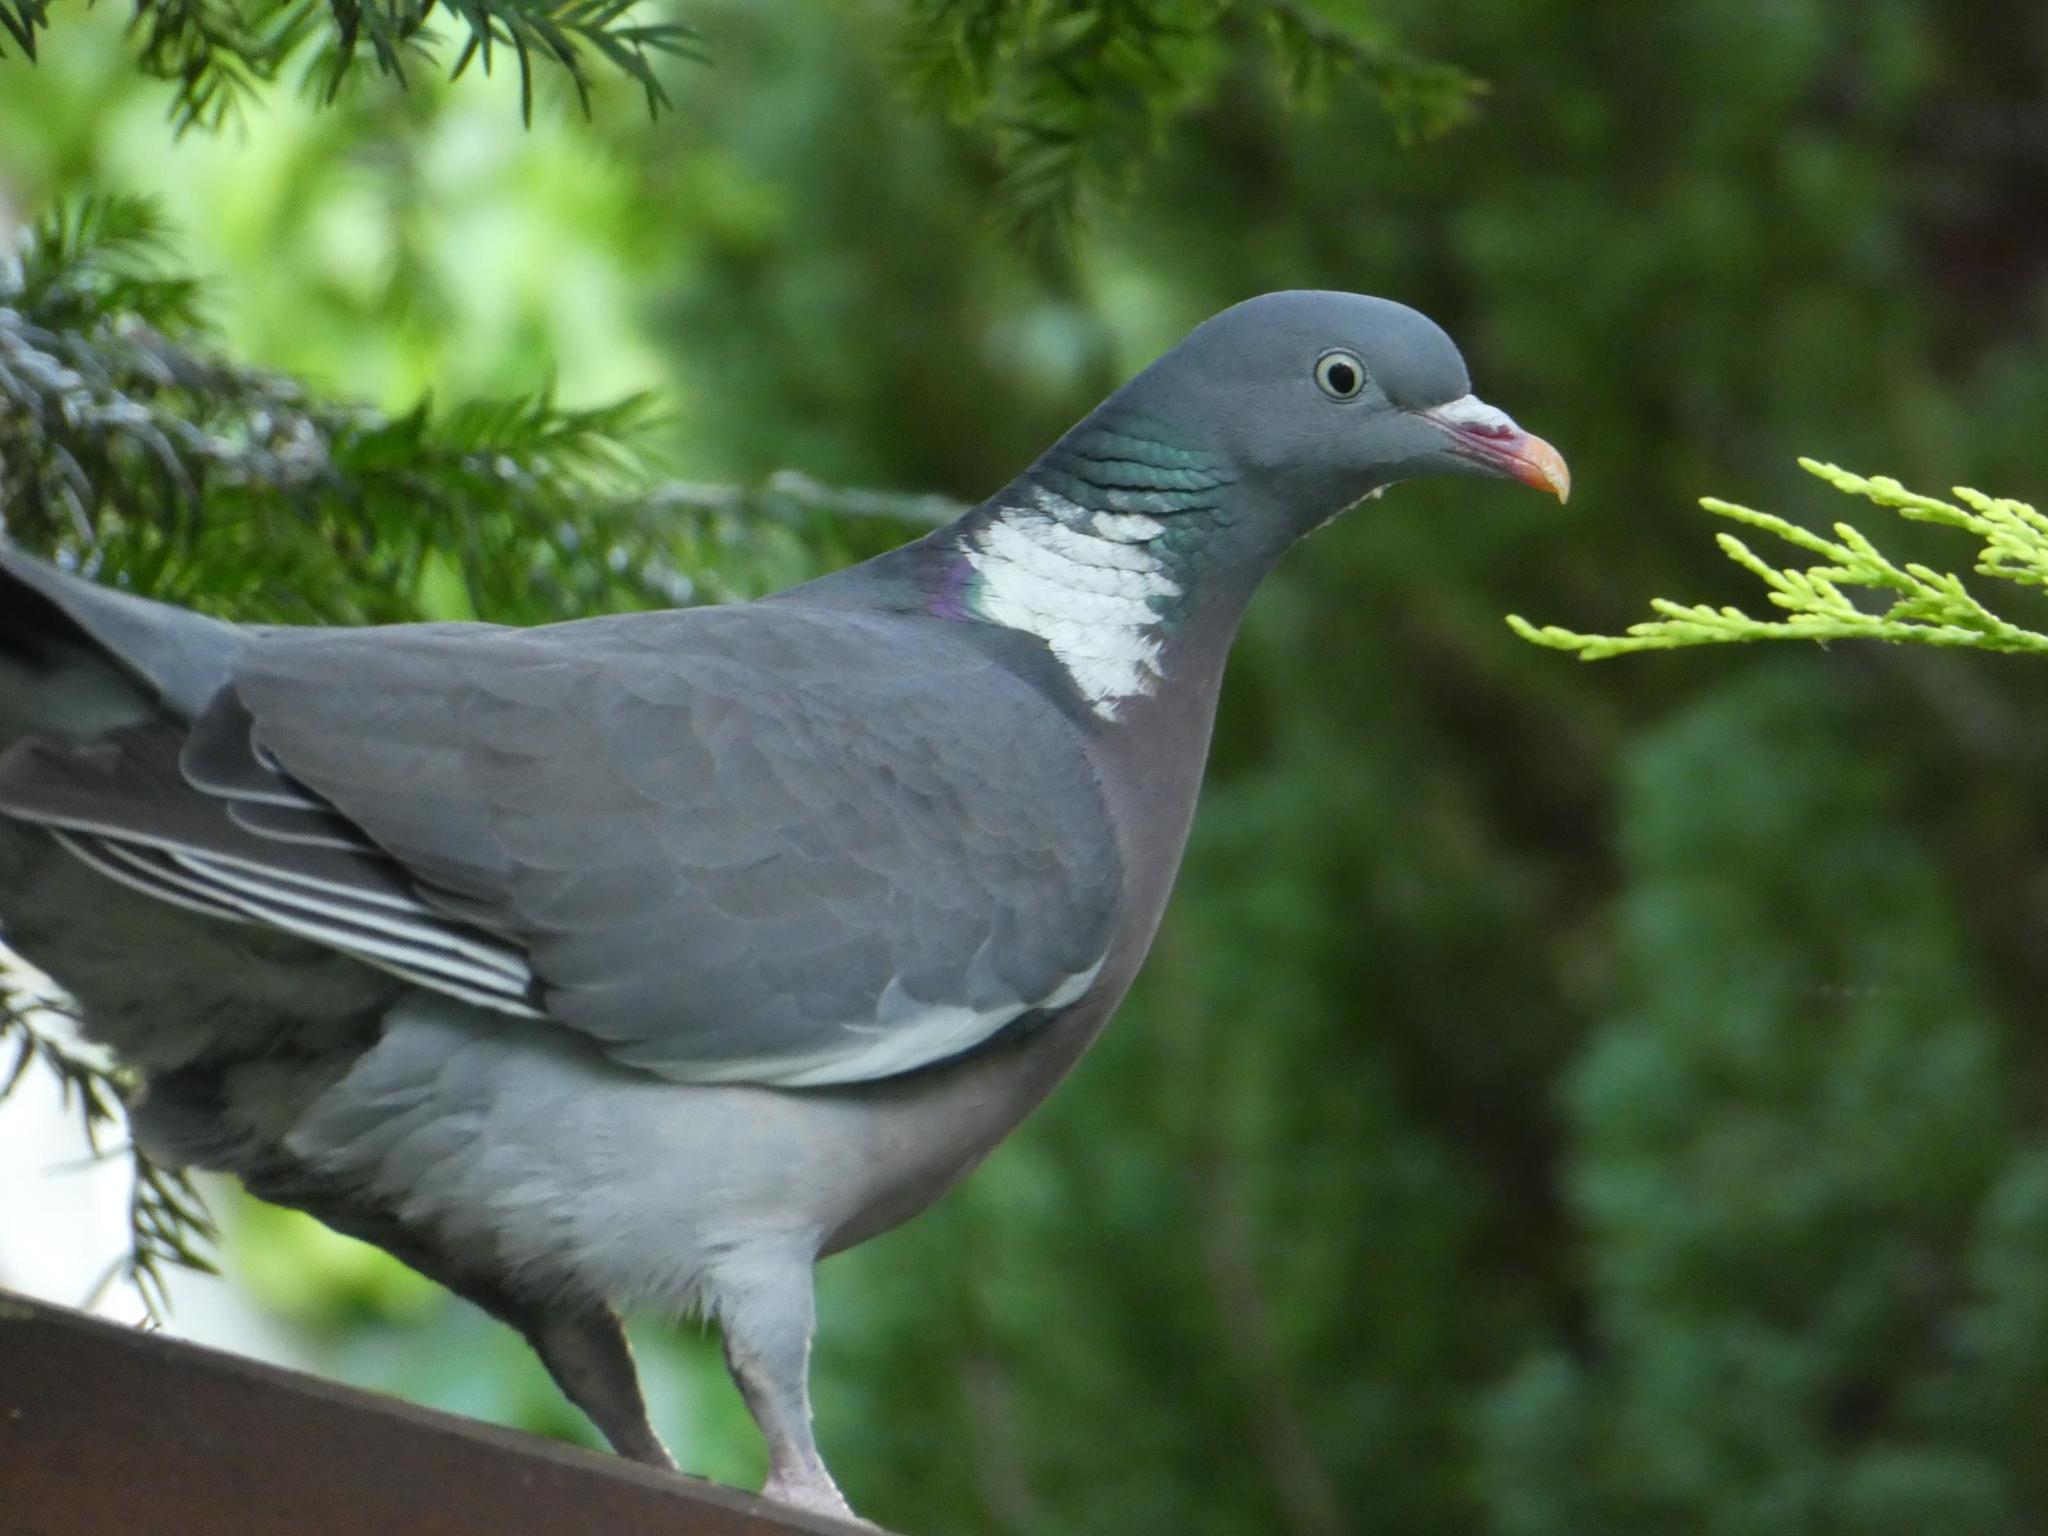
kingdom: Animalia
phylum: Chordata
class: Aves
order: Columbiformes
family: Columbidae
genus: Columba
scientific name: Columba palumbus
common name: Common wood pigeon
